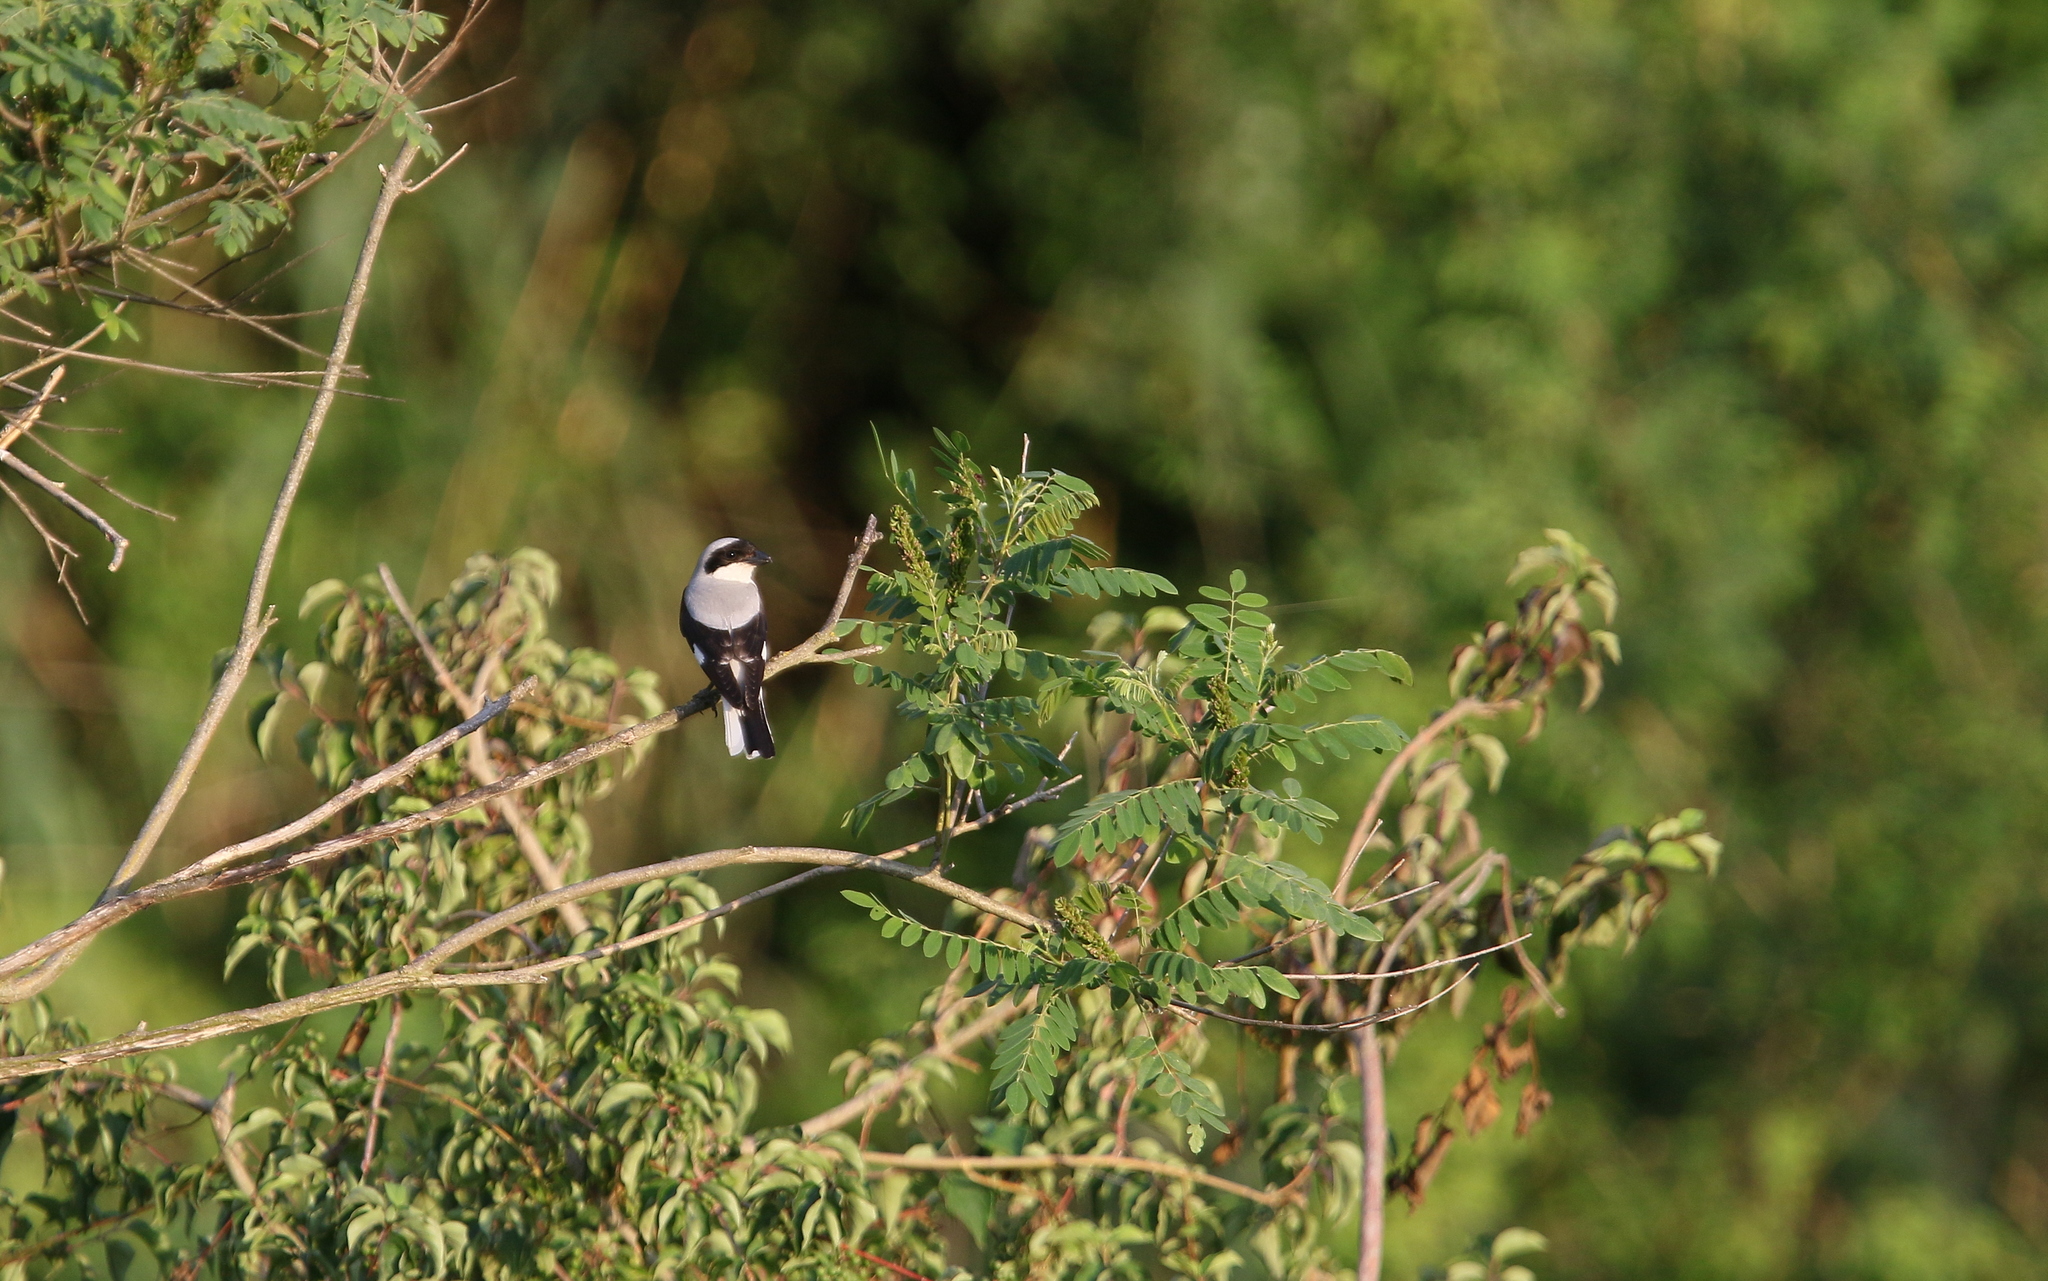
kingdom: Animalia
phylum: Chordata
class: Aves
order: Passeriformes
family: Laniidae
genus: Lanius
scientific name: Lanius minor
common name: Lesser grey shrike
